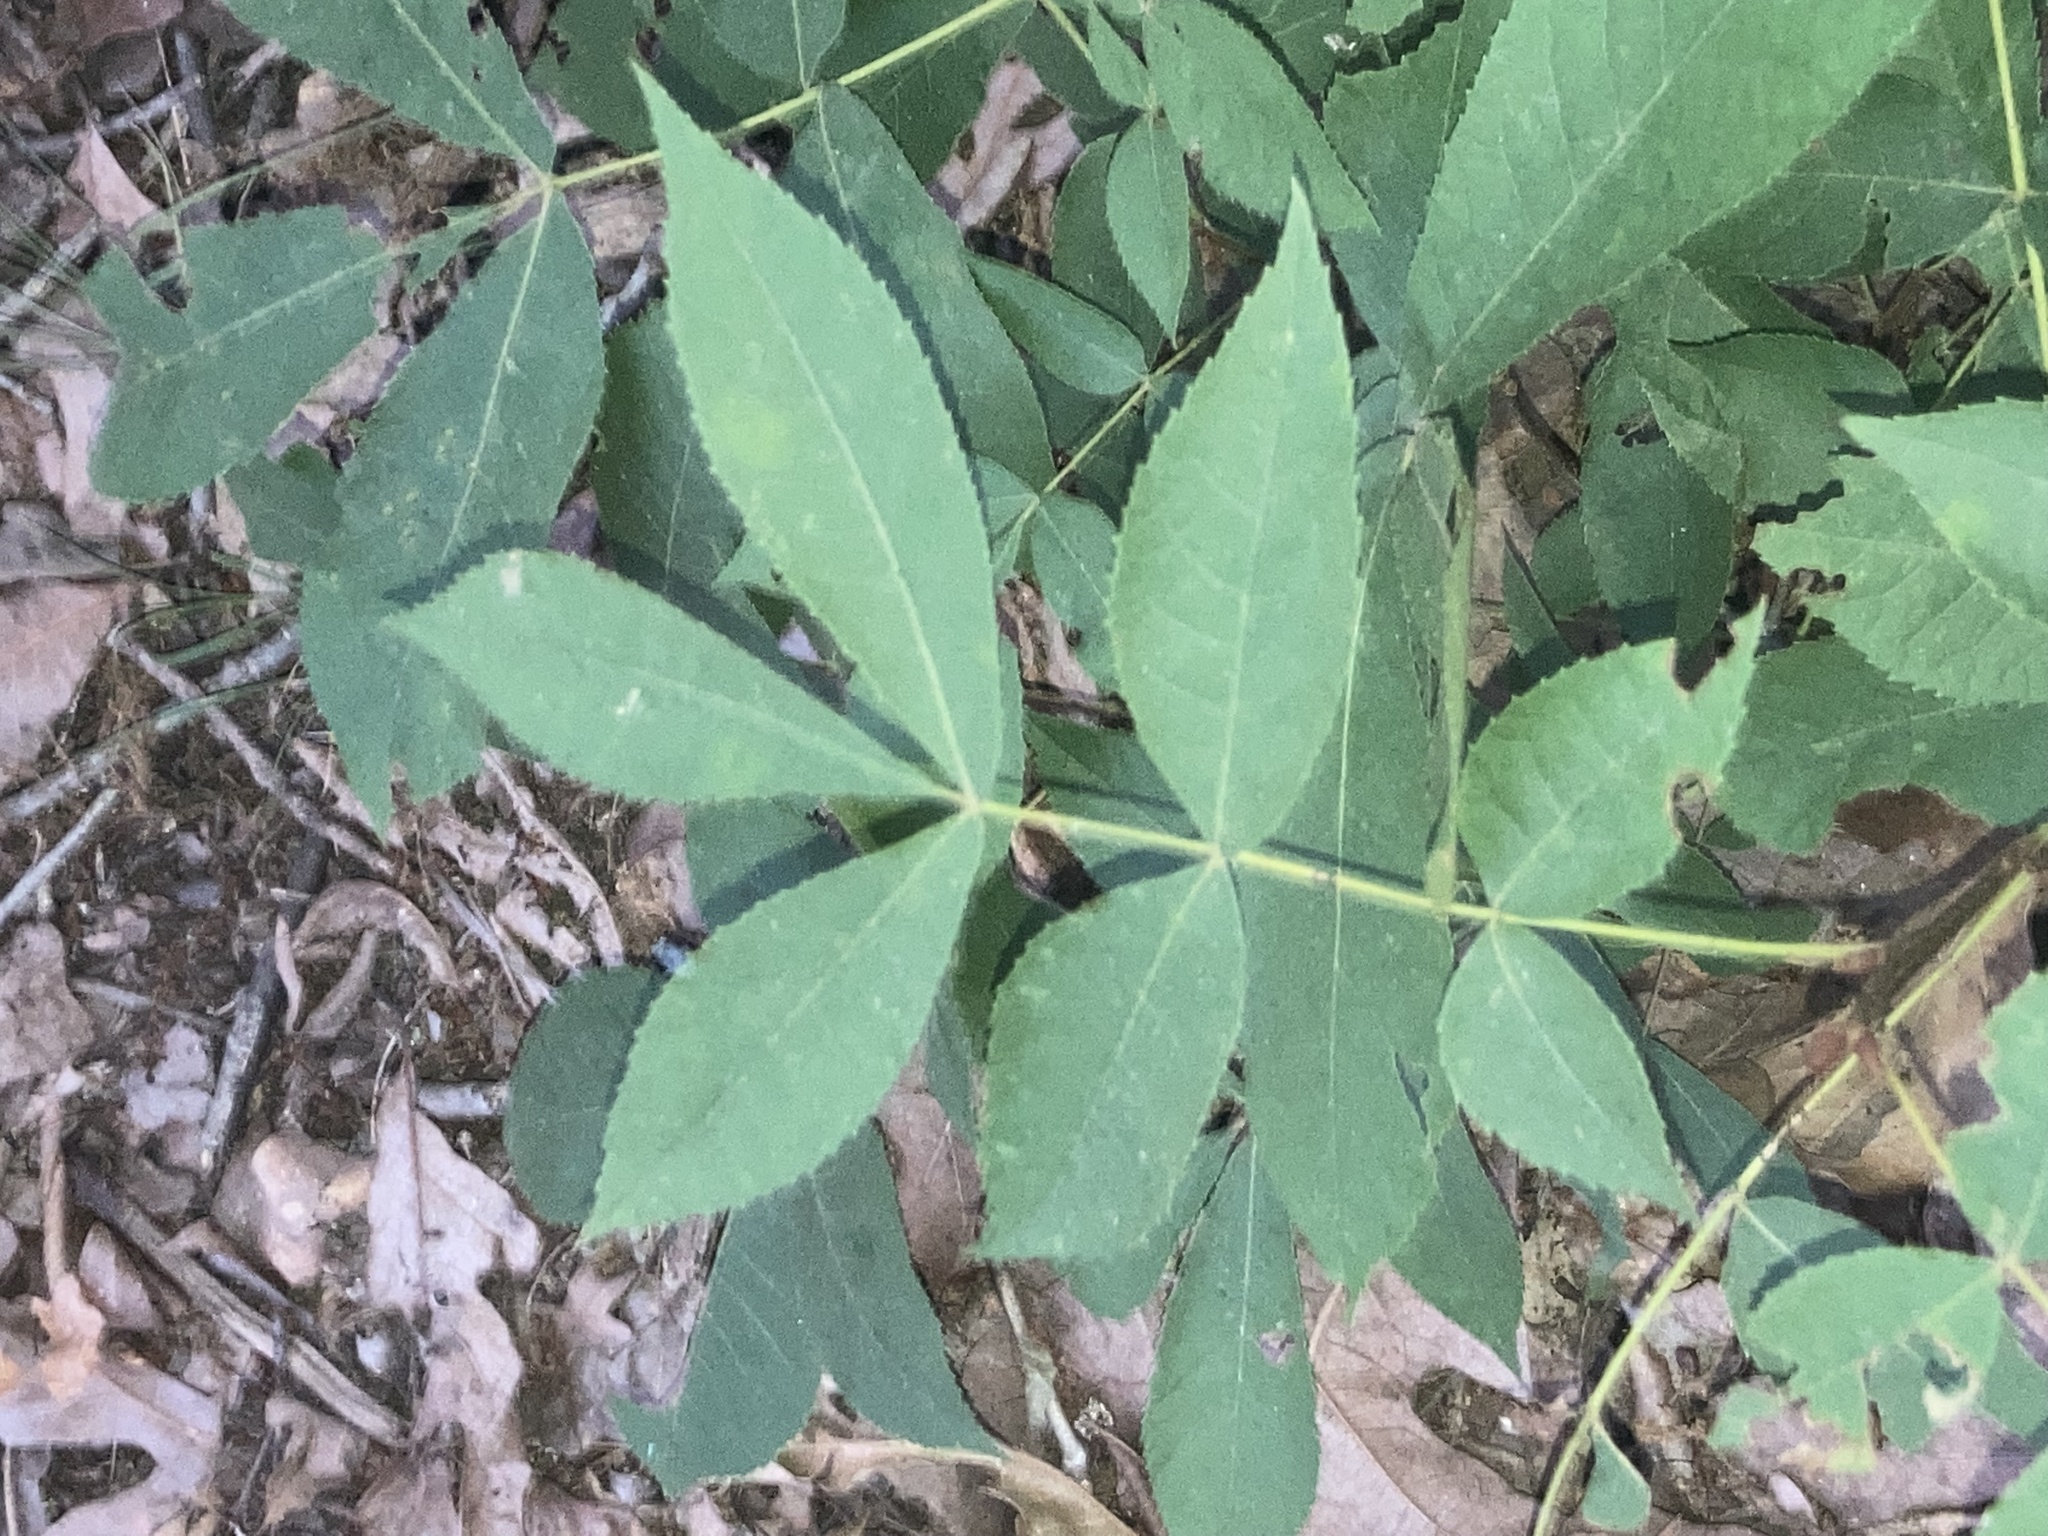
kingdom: Plantae
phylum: Tracheophyta
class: Magnoliopsida
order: Fagales
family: Juglandaceae
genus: Carya
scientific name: Carya texana
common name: Black hickory
